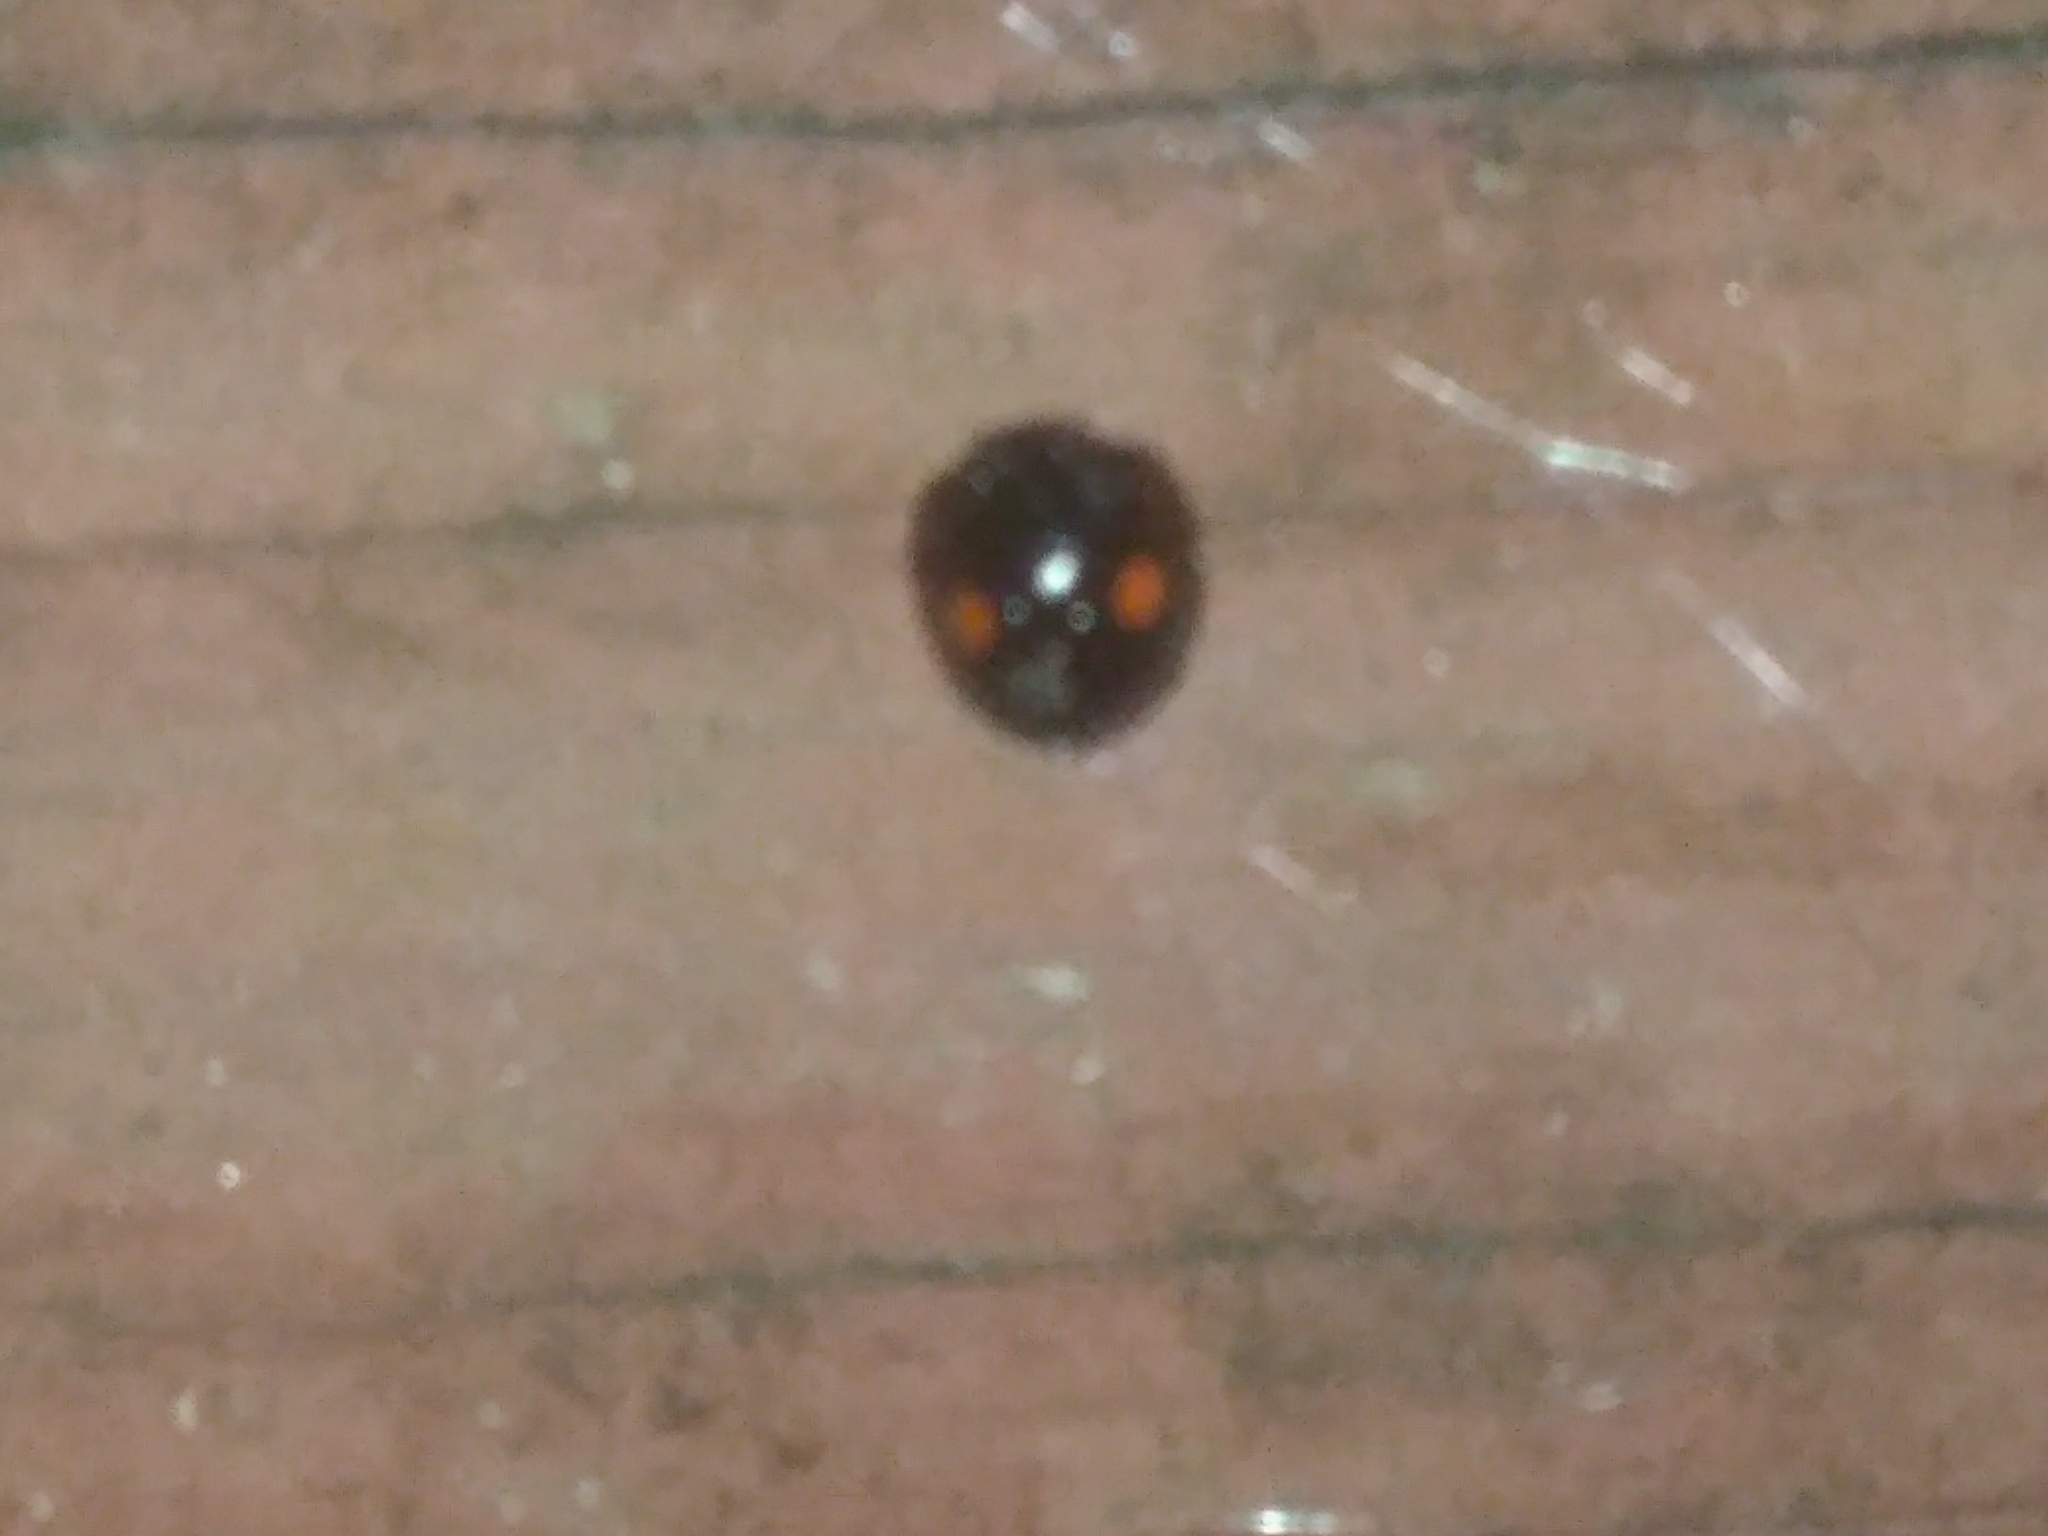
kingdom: Animalia
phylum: Arthropoda
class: Insecta
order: Coleoptera
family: Coccinellidae
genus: Chilocorus
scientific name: Chilocorus stigma
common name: Twicestabbed lady beetle
